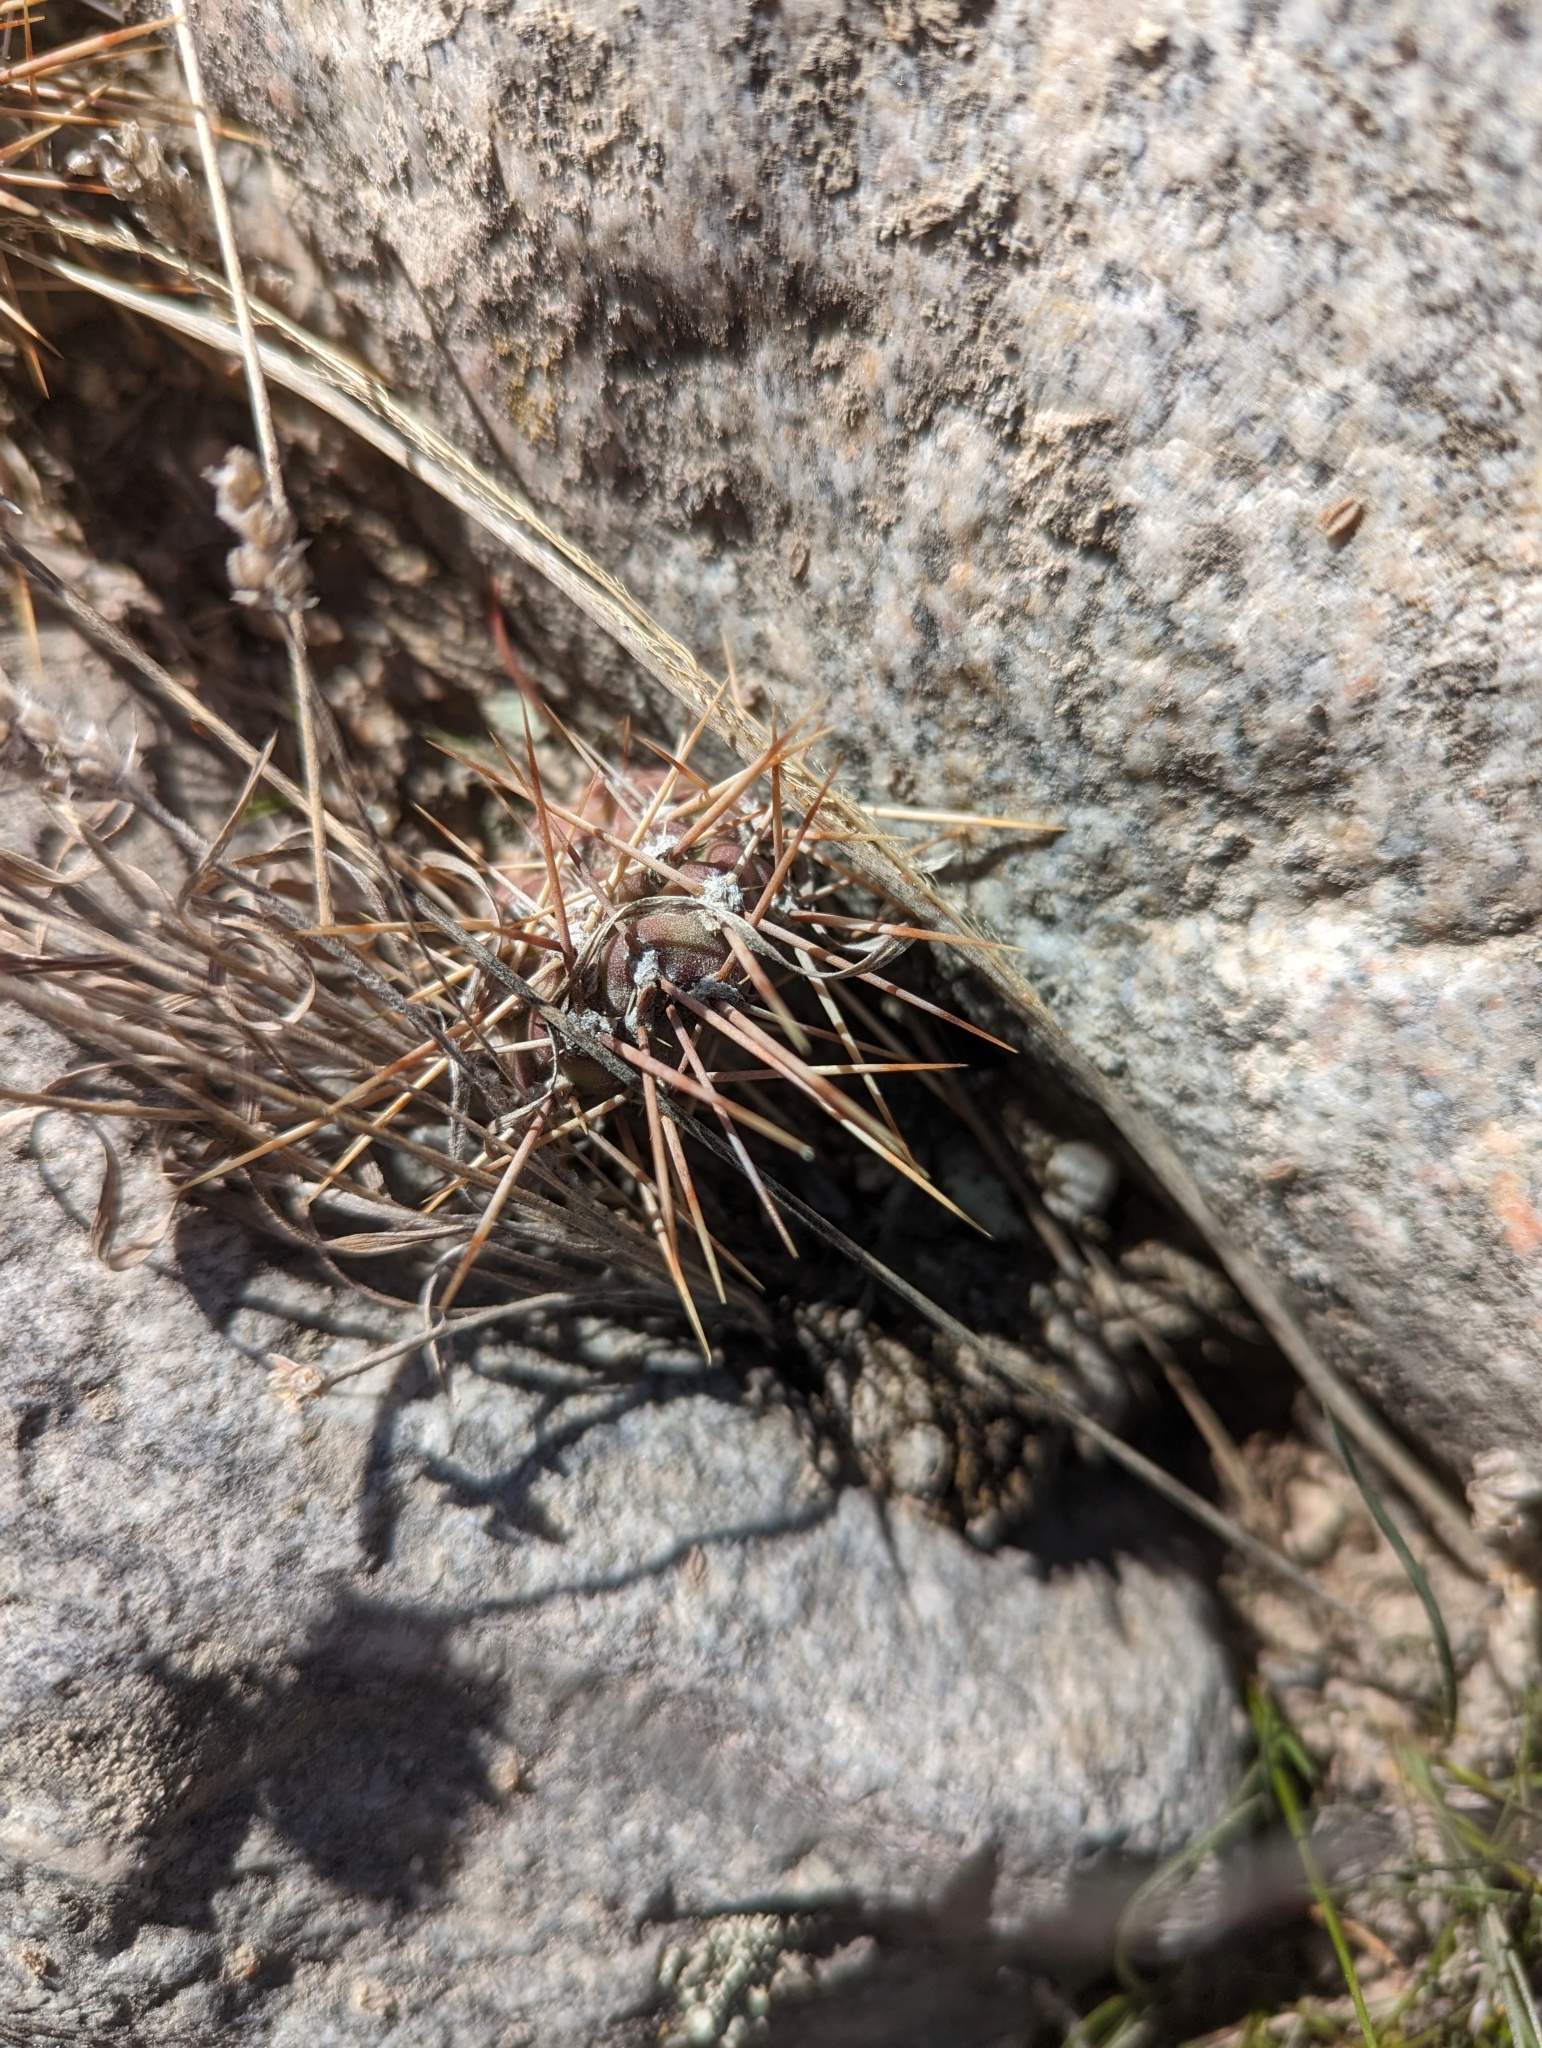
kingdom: Plantae
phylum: Tracheophyta
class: Magnoliopsida
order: Caryophyllales
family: Cactaceae
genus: Opuntia
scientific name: Opuntia fragilis
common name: Brittle cactus
